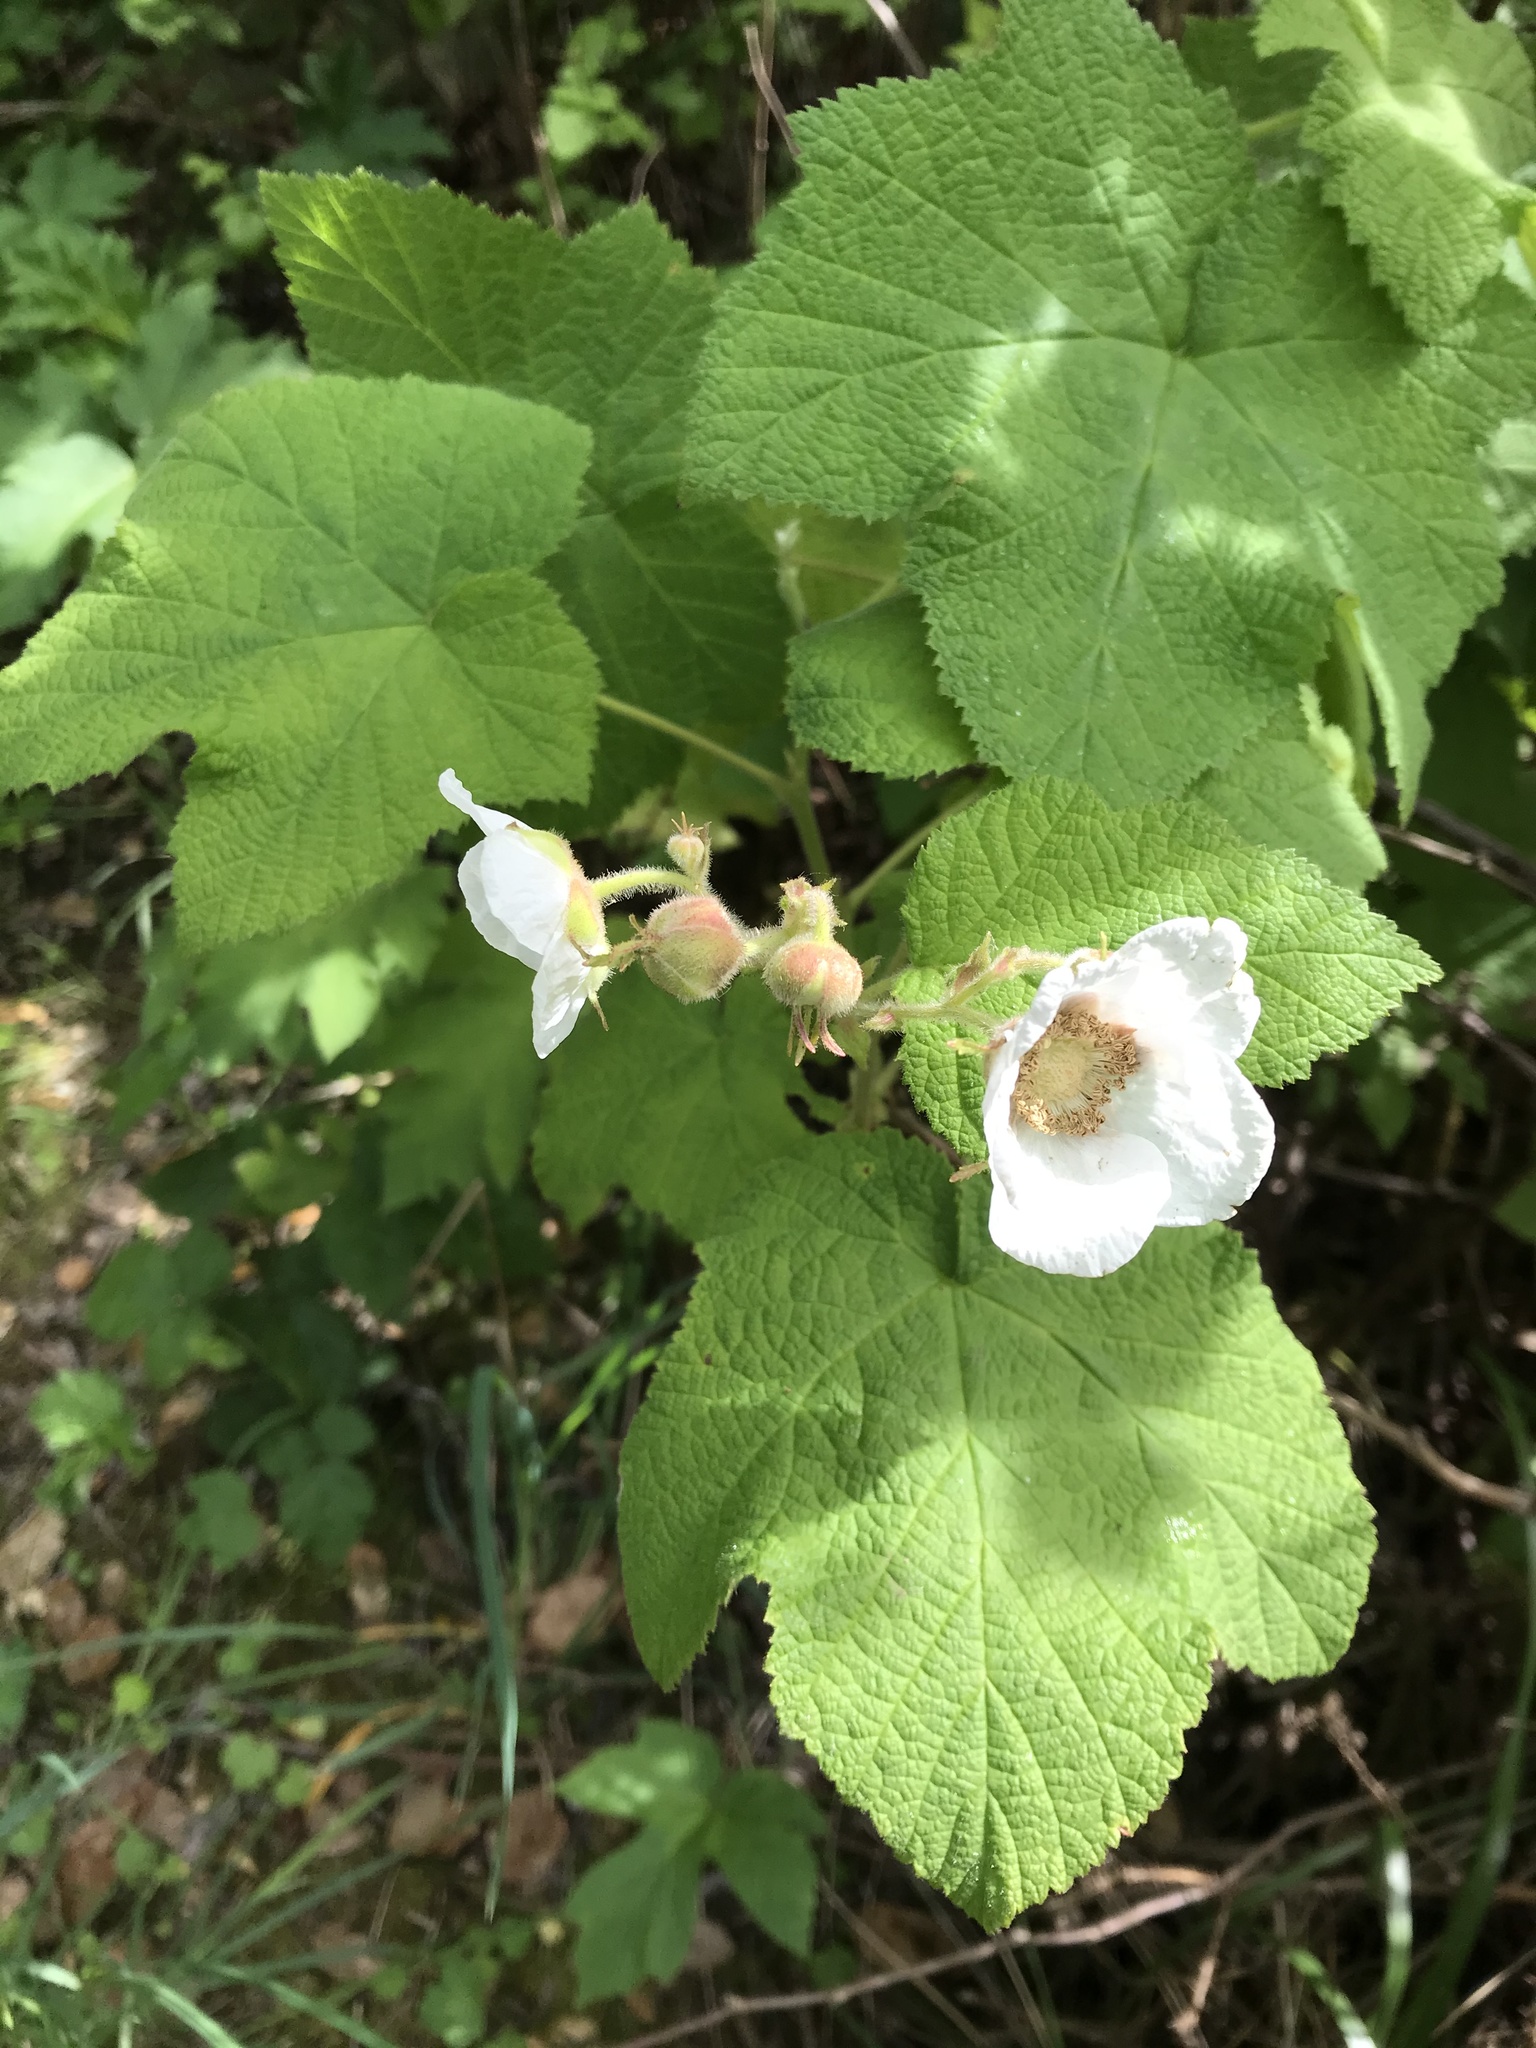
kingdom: Plantae
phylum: Tracheophyta
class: Magnoliopsida
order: Rosales
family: Rosaceae
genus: Rubus
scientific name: Rubus parviflorus
